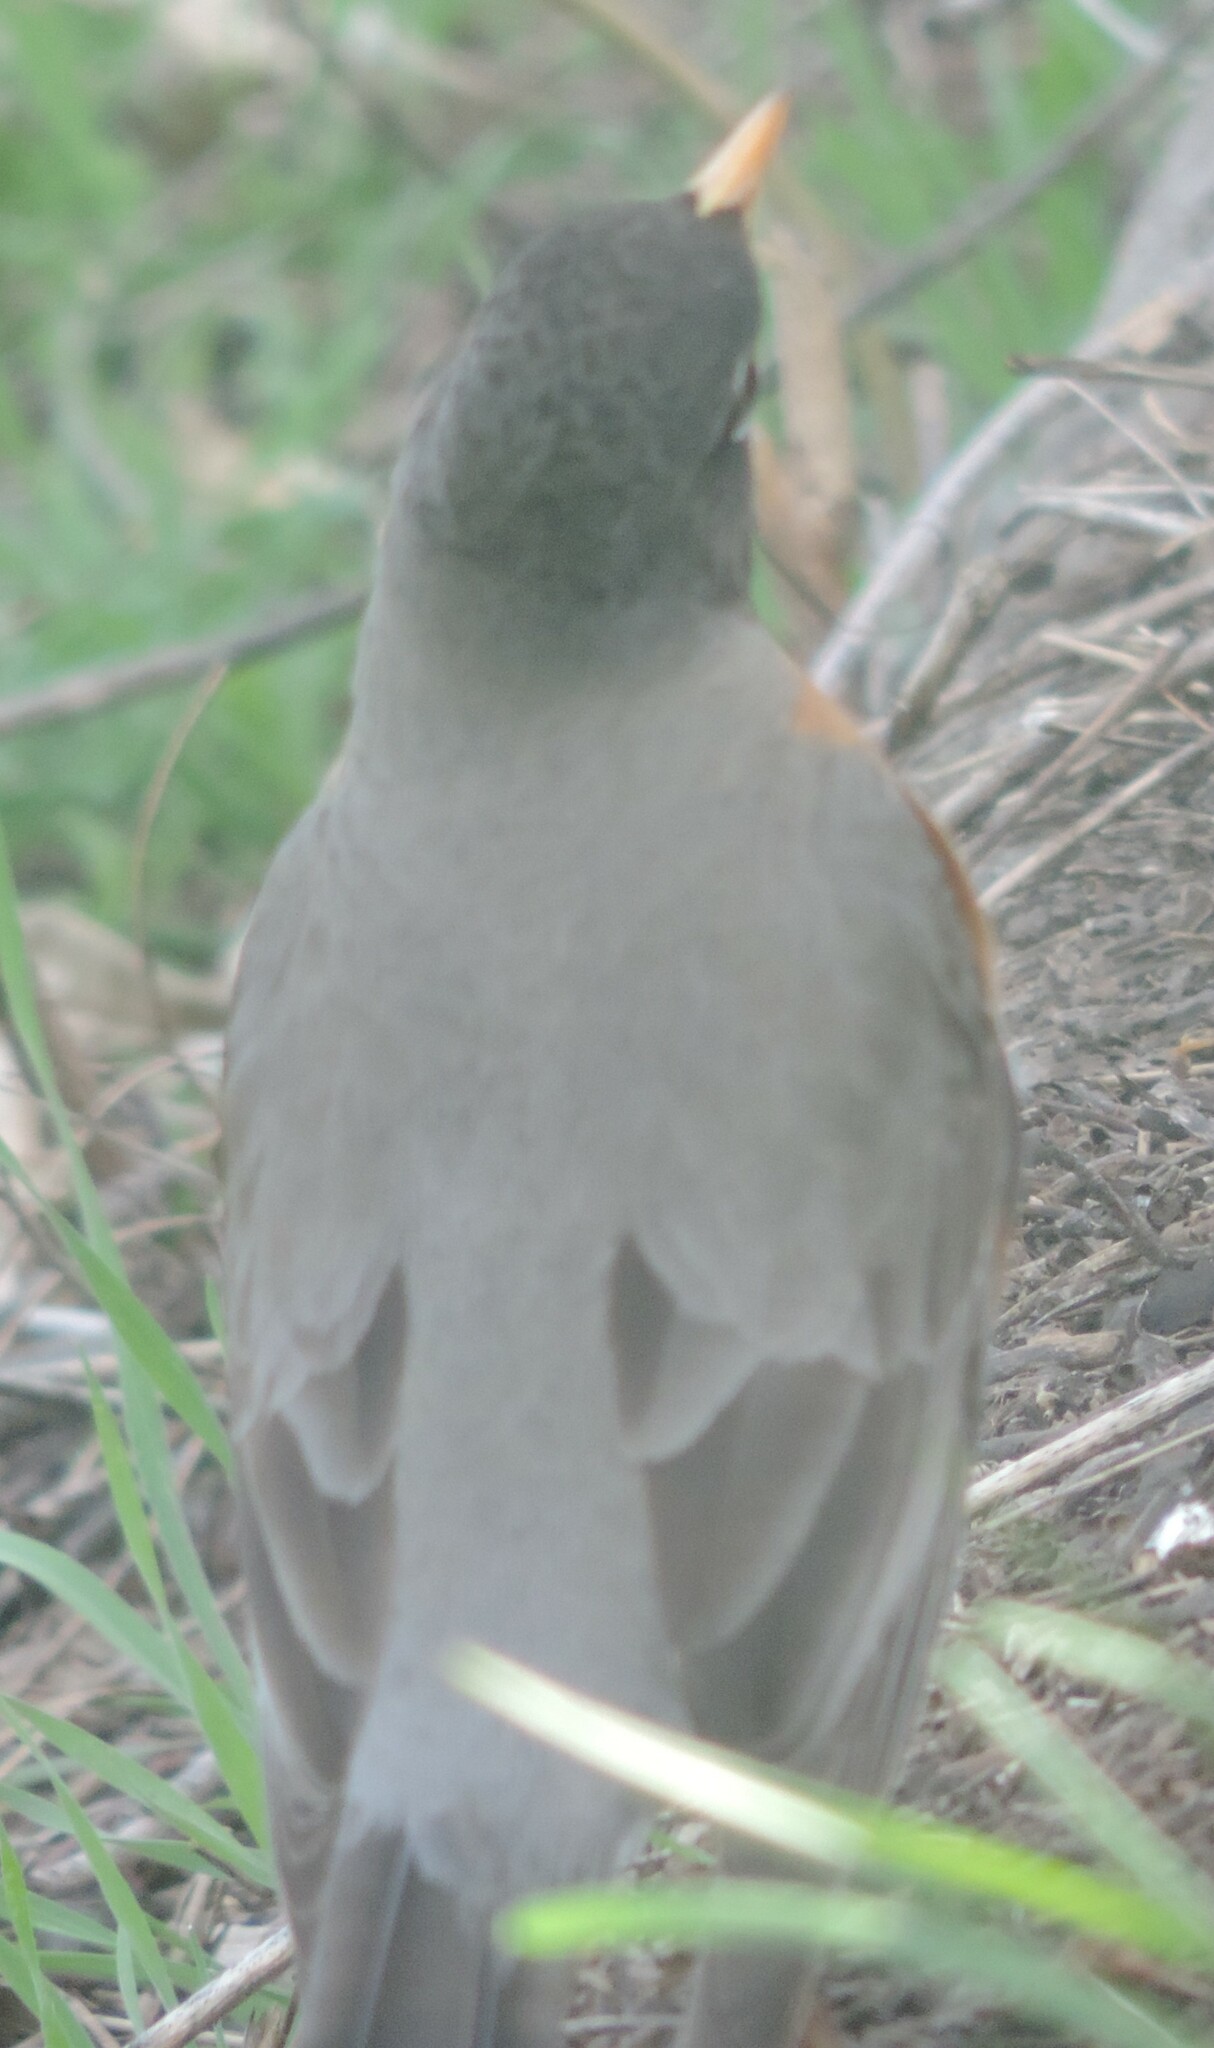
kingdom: Animalia
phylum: Chordata
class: Aves
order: Passeriformes
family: Turdidae
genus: Turdus
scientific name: Turdus migratorius
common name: American robin
